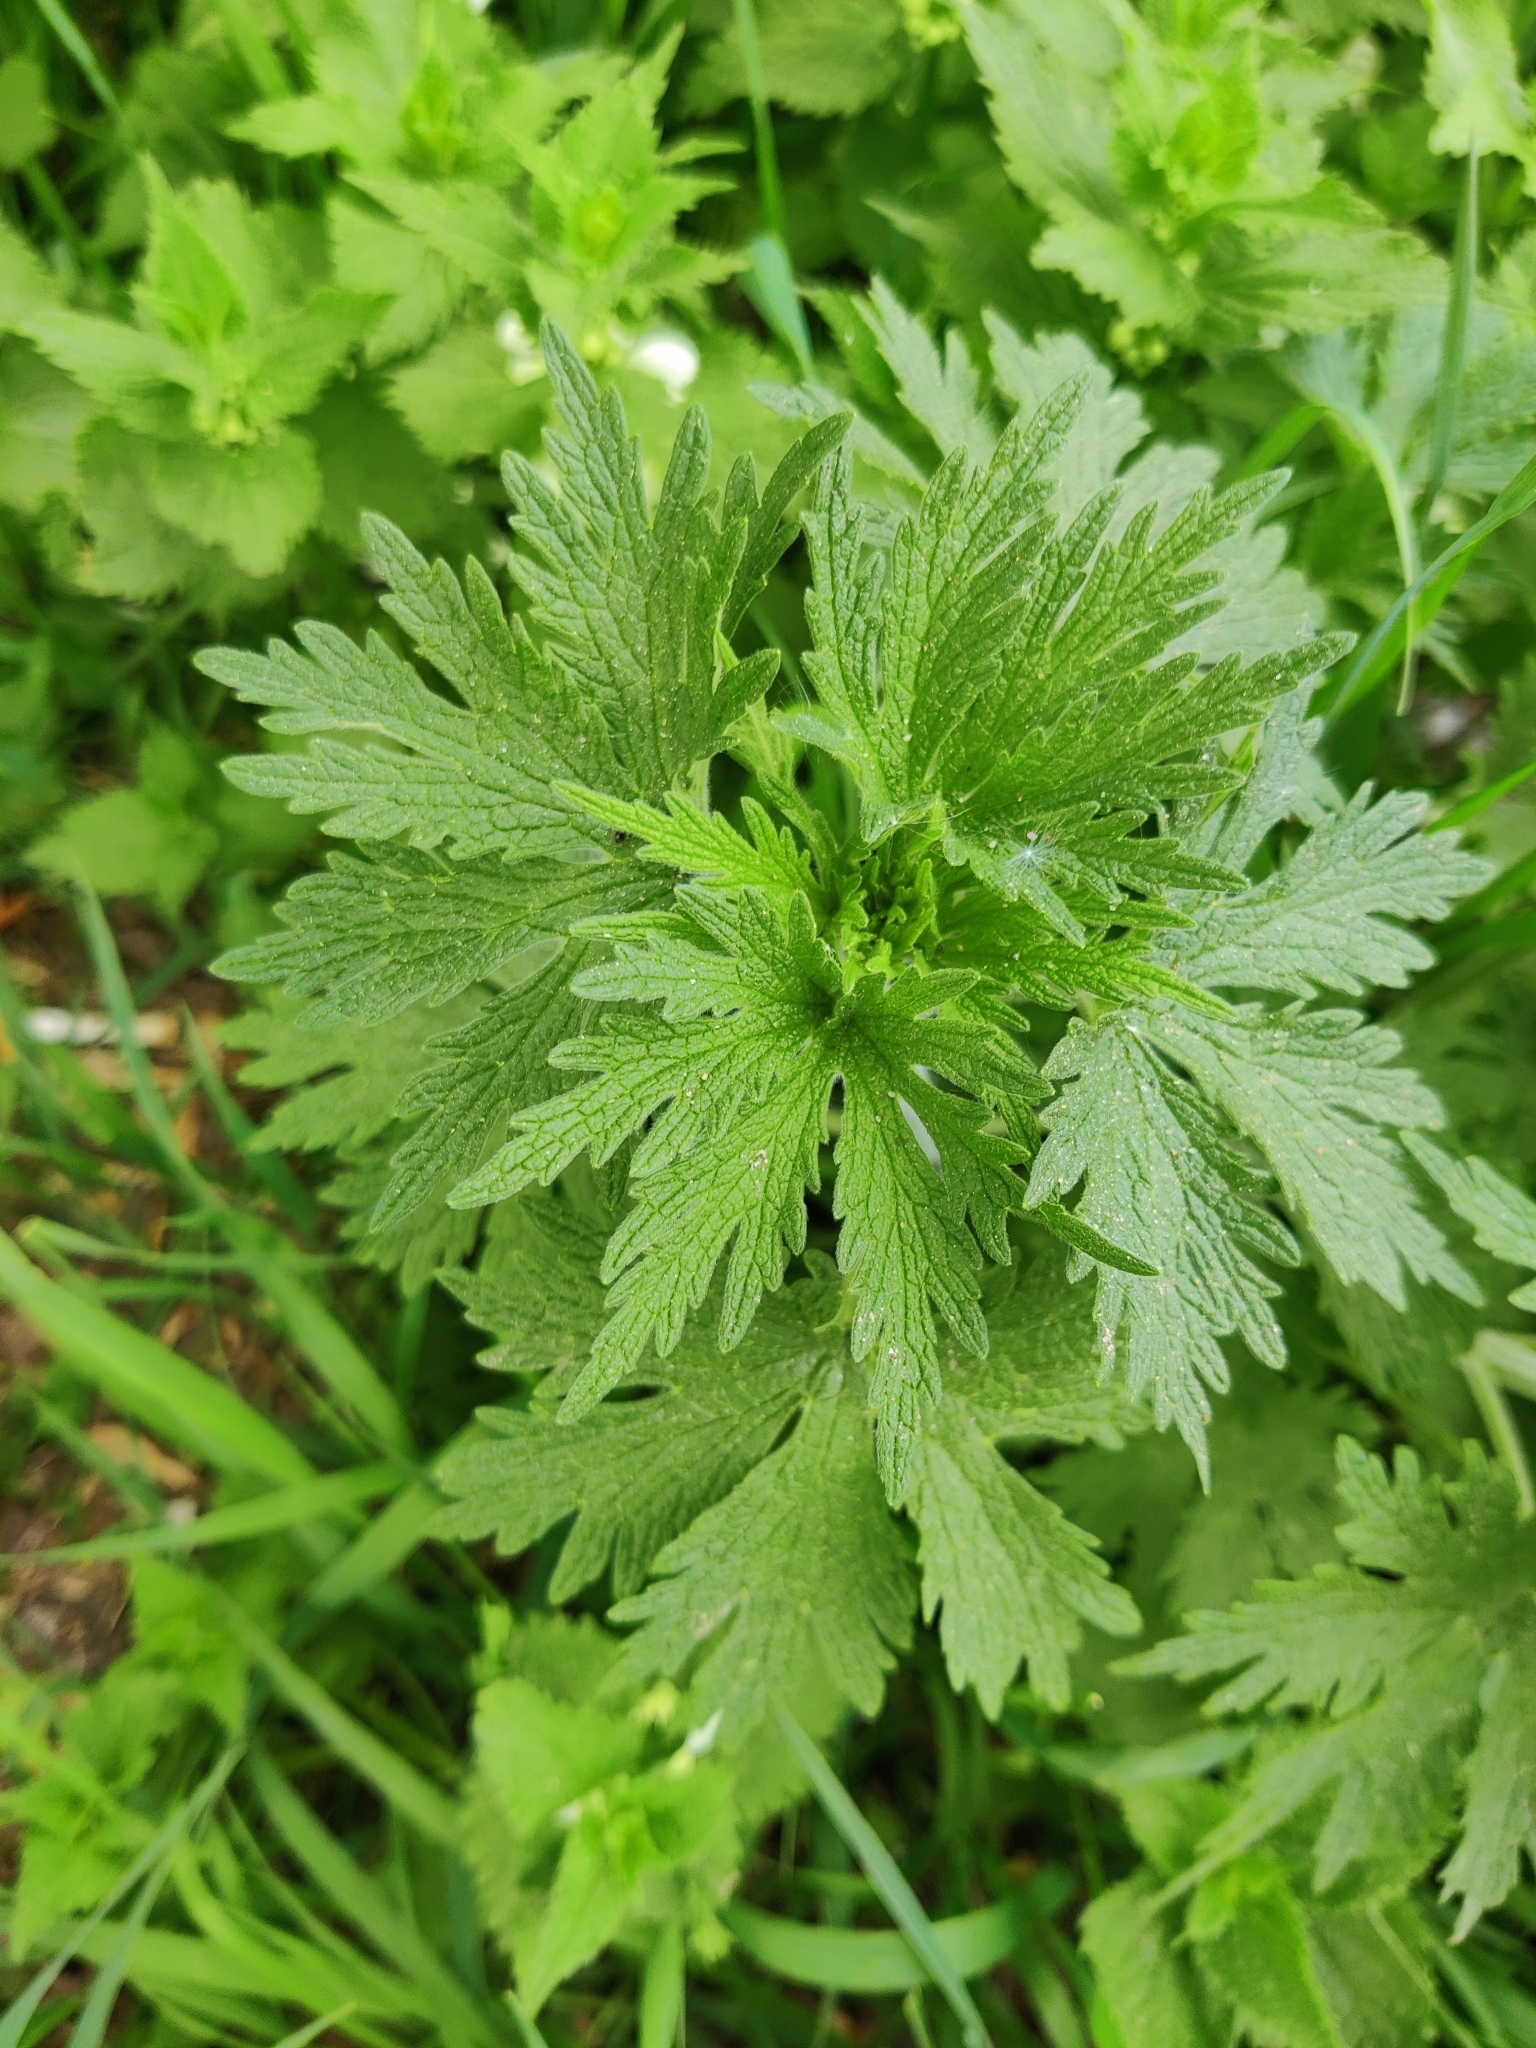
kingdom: Plantae
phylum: Tracheophyta
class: Magnoliopsida
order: Lamiales
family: Lamiaceae
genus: Leonurus
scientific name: Leonurus quinquelobatus
